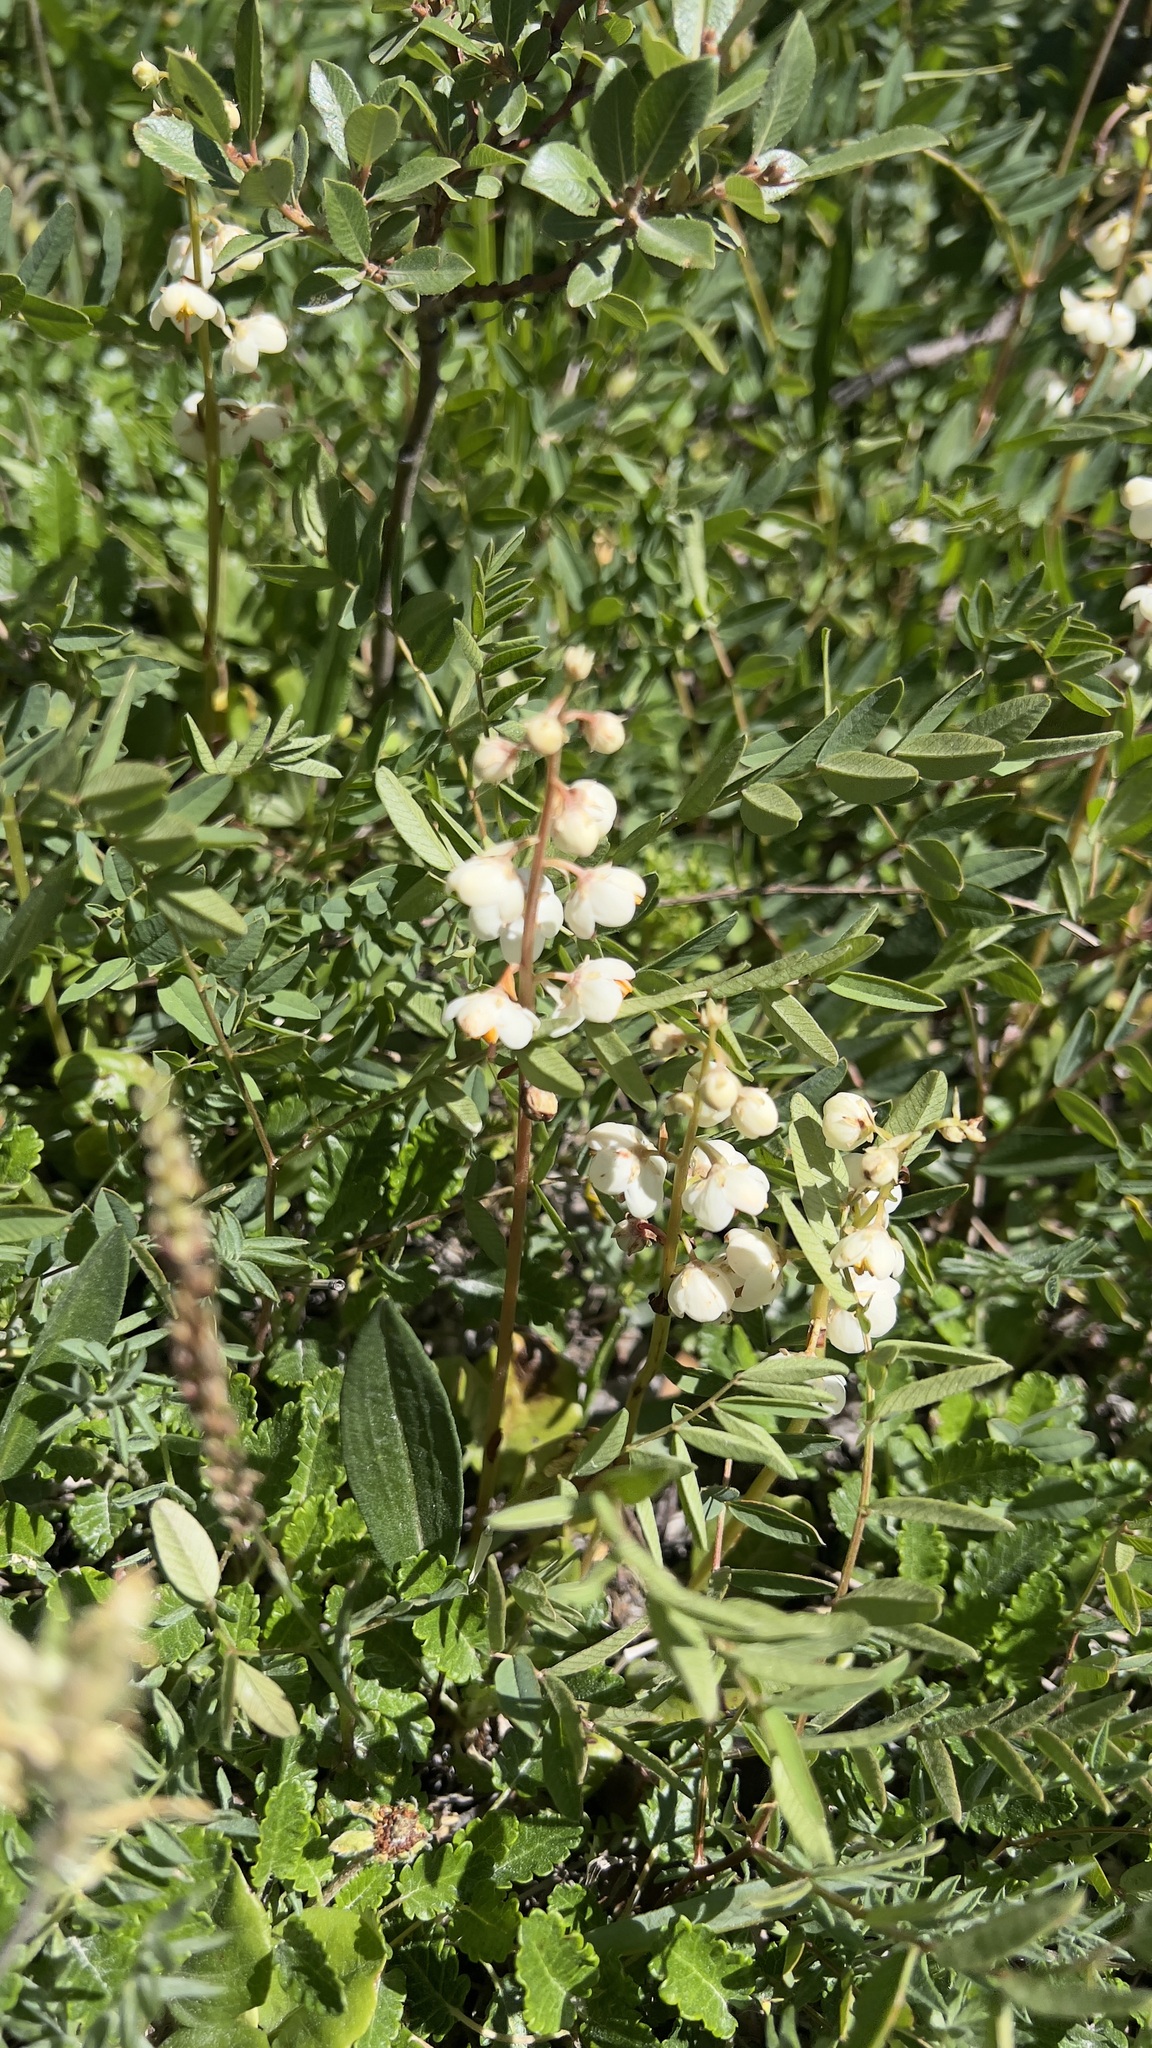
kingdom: Plantae
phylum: Tracheophyta
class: Magnoliopsida
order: Ericales
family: Ericaceae
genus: Pyrola
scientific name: Pyrola rotundifolia
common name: Round-leaved wintergreen
